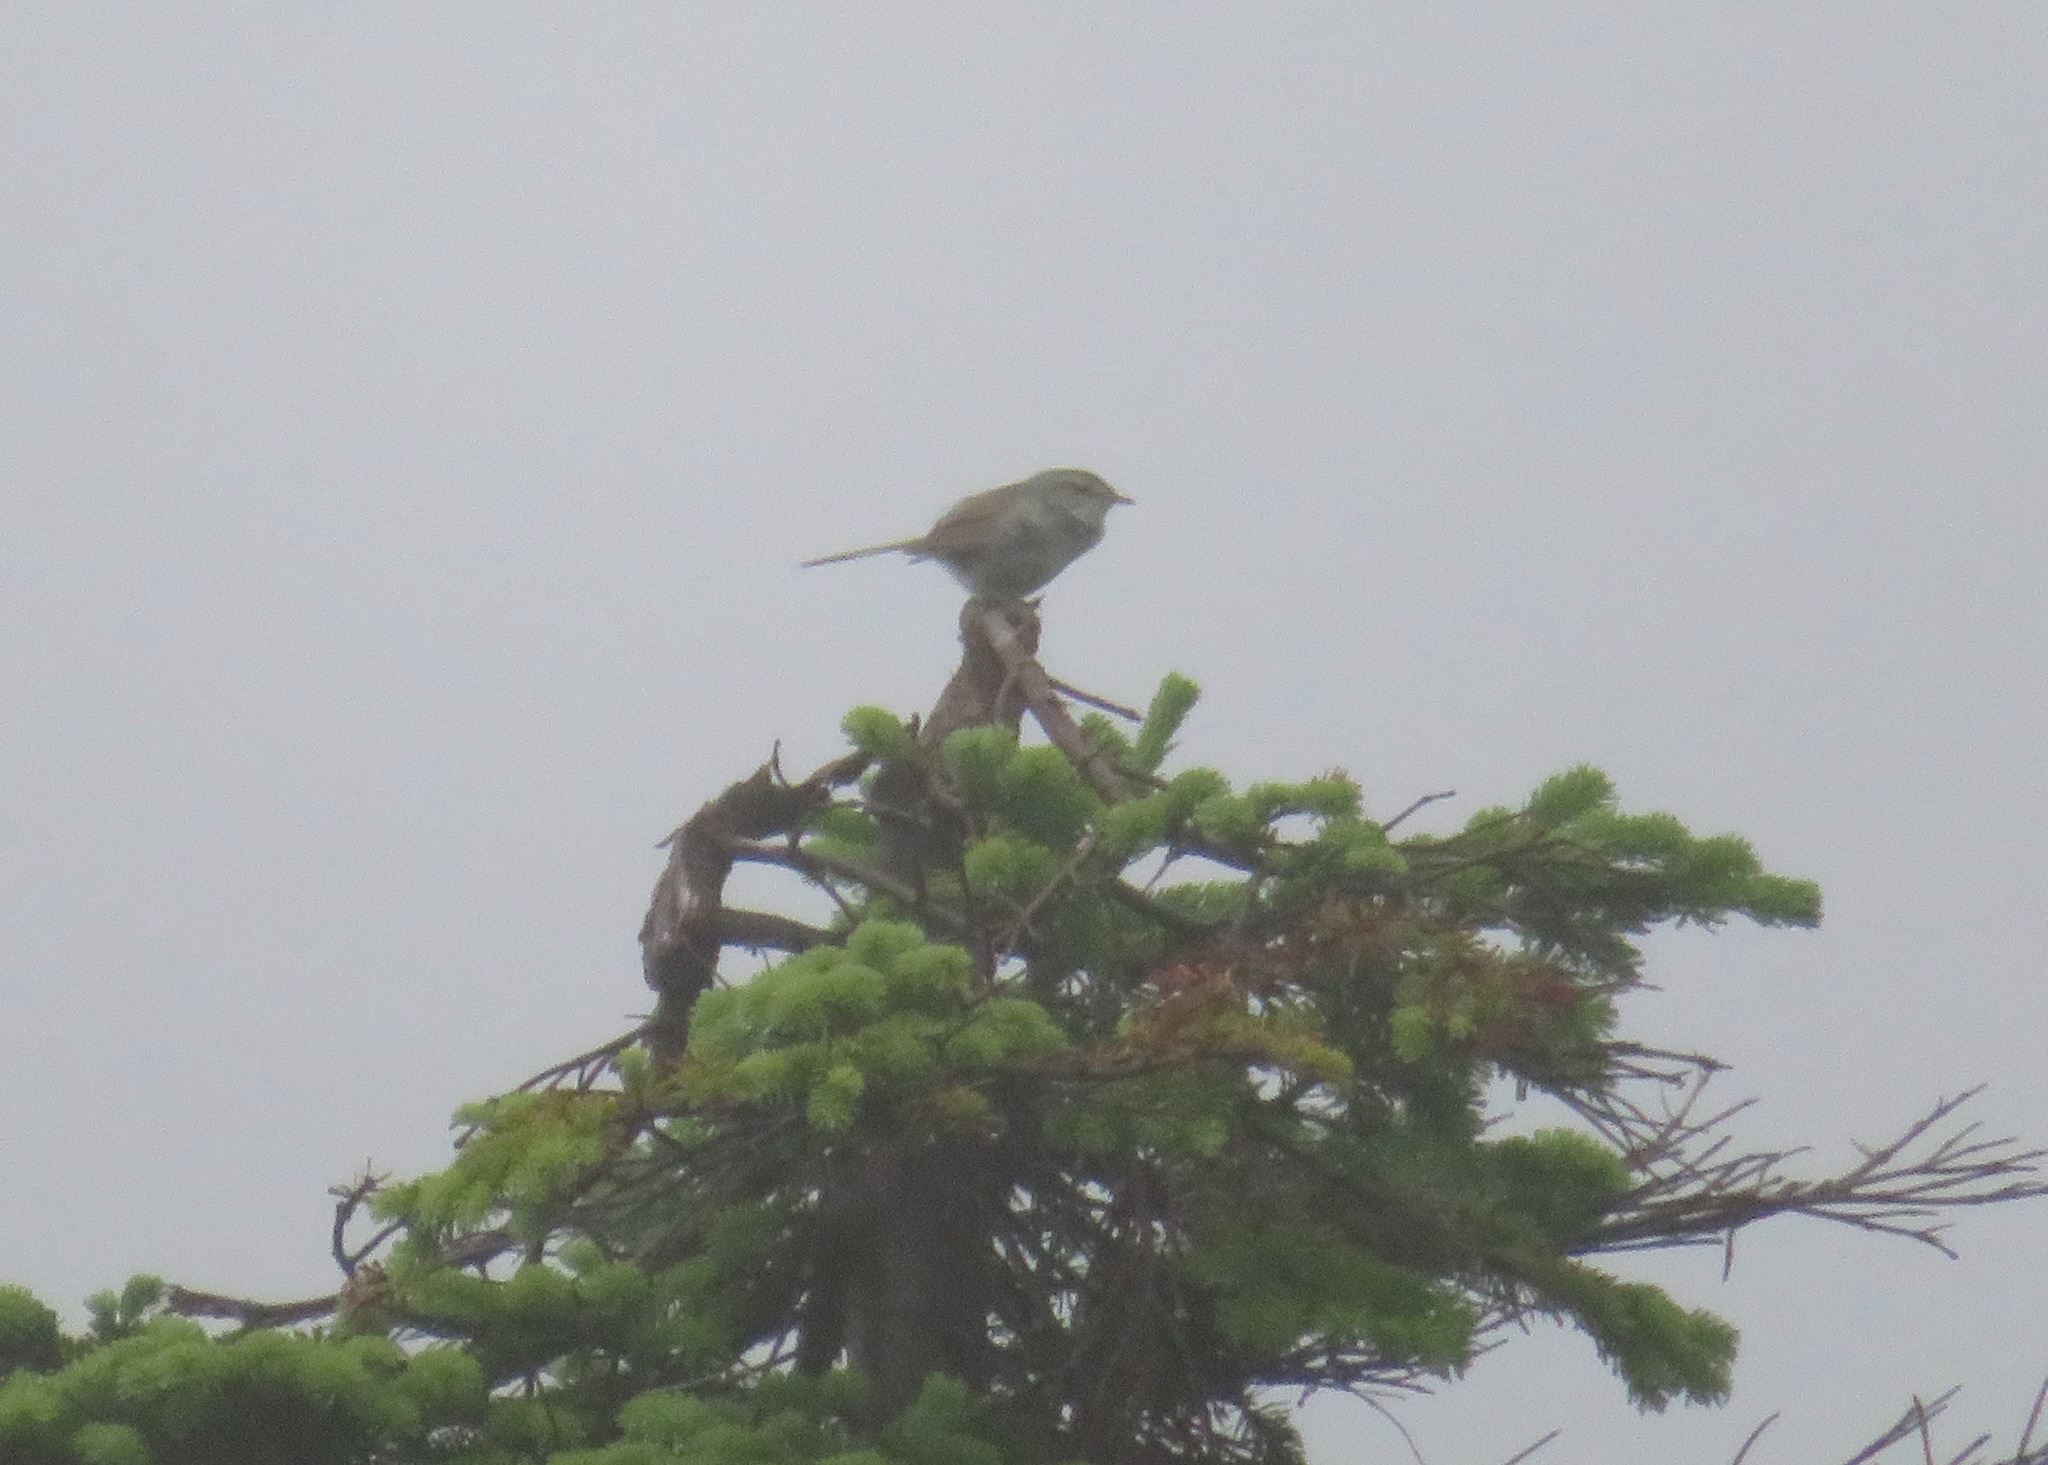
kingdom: Animalia
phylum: Chordata
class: Aves
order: Passeriformes
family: Cettiidae
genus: Horornis
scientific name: Horornis diphone
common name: Japanese bush warbler
